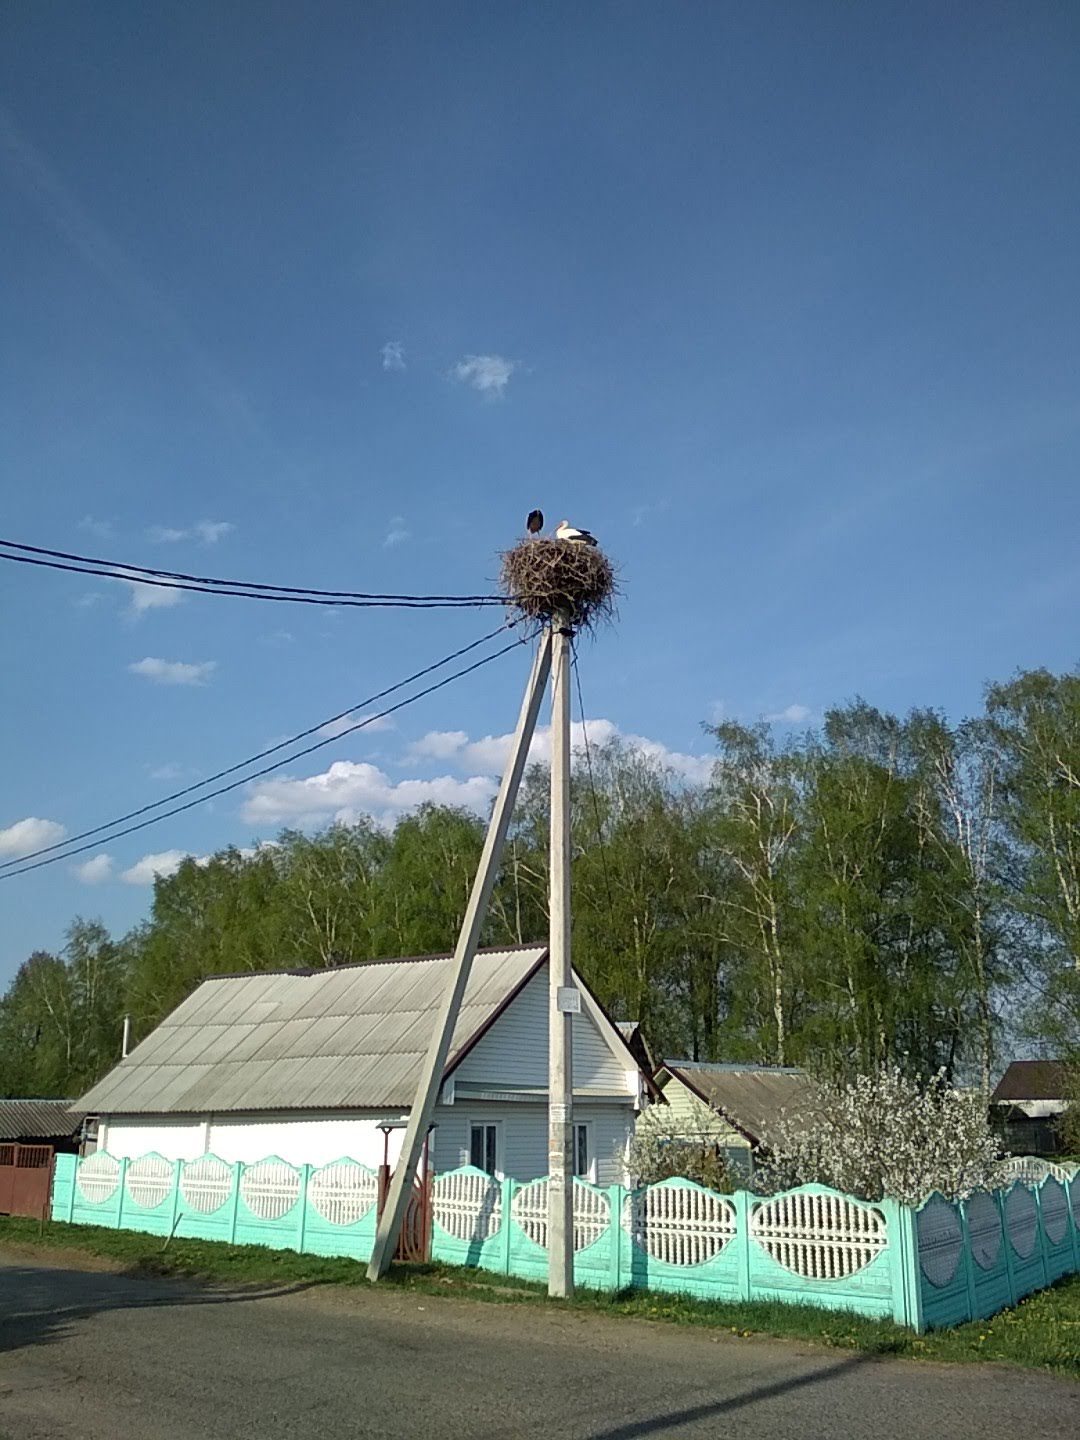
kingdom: Animalia
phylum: Chordata
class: Aves
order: Ciconiiformes
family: Ciconiidae
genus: Ciconia
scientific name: Ciconia ciconia
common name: White stork
